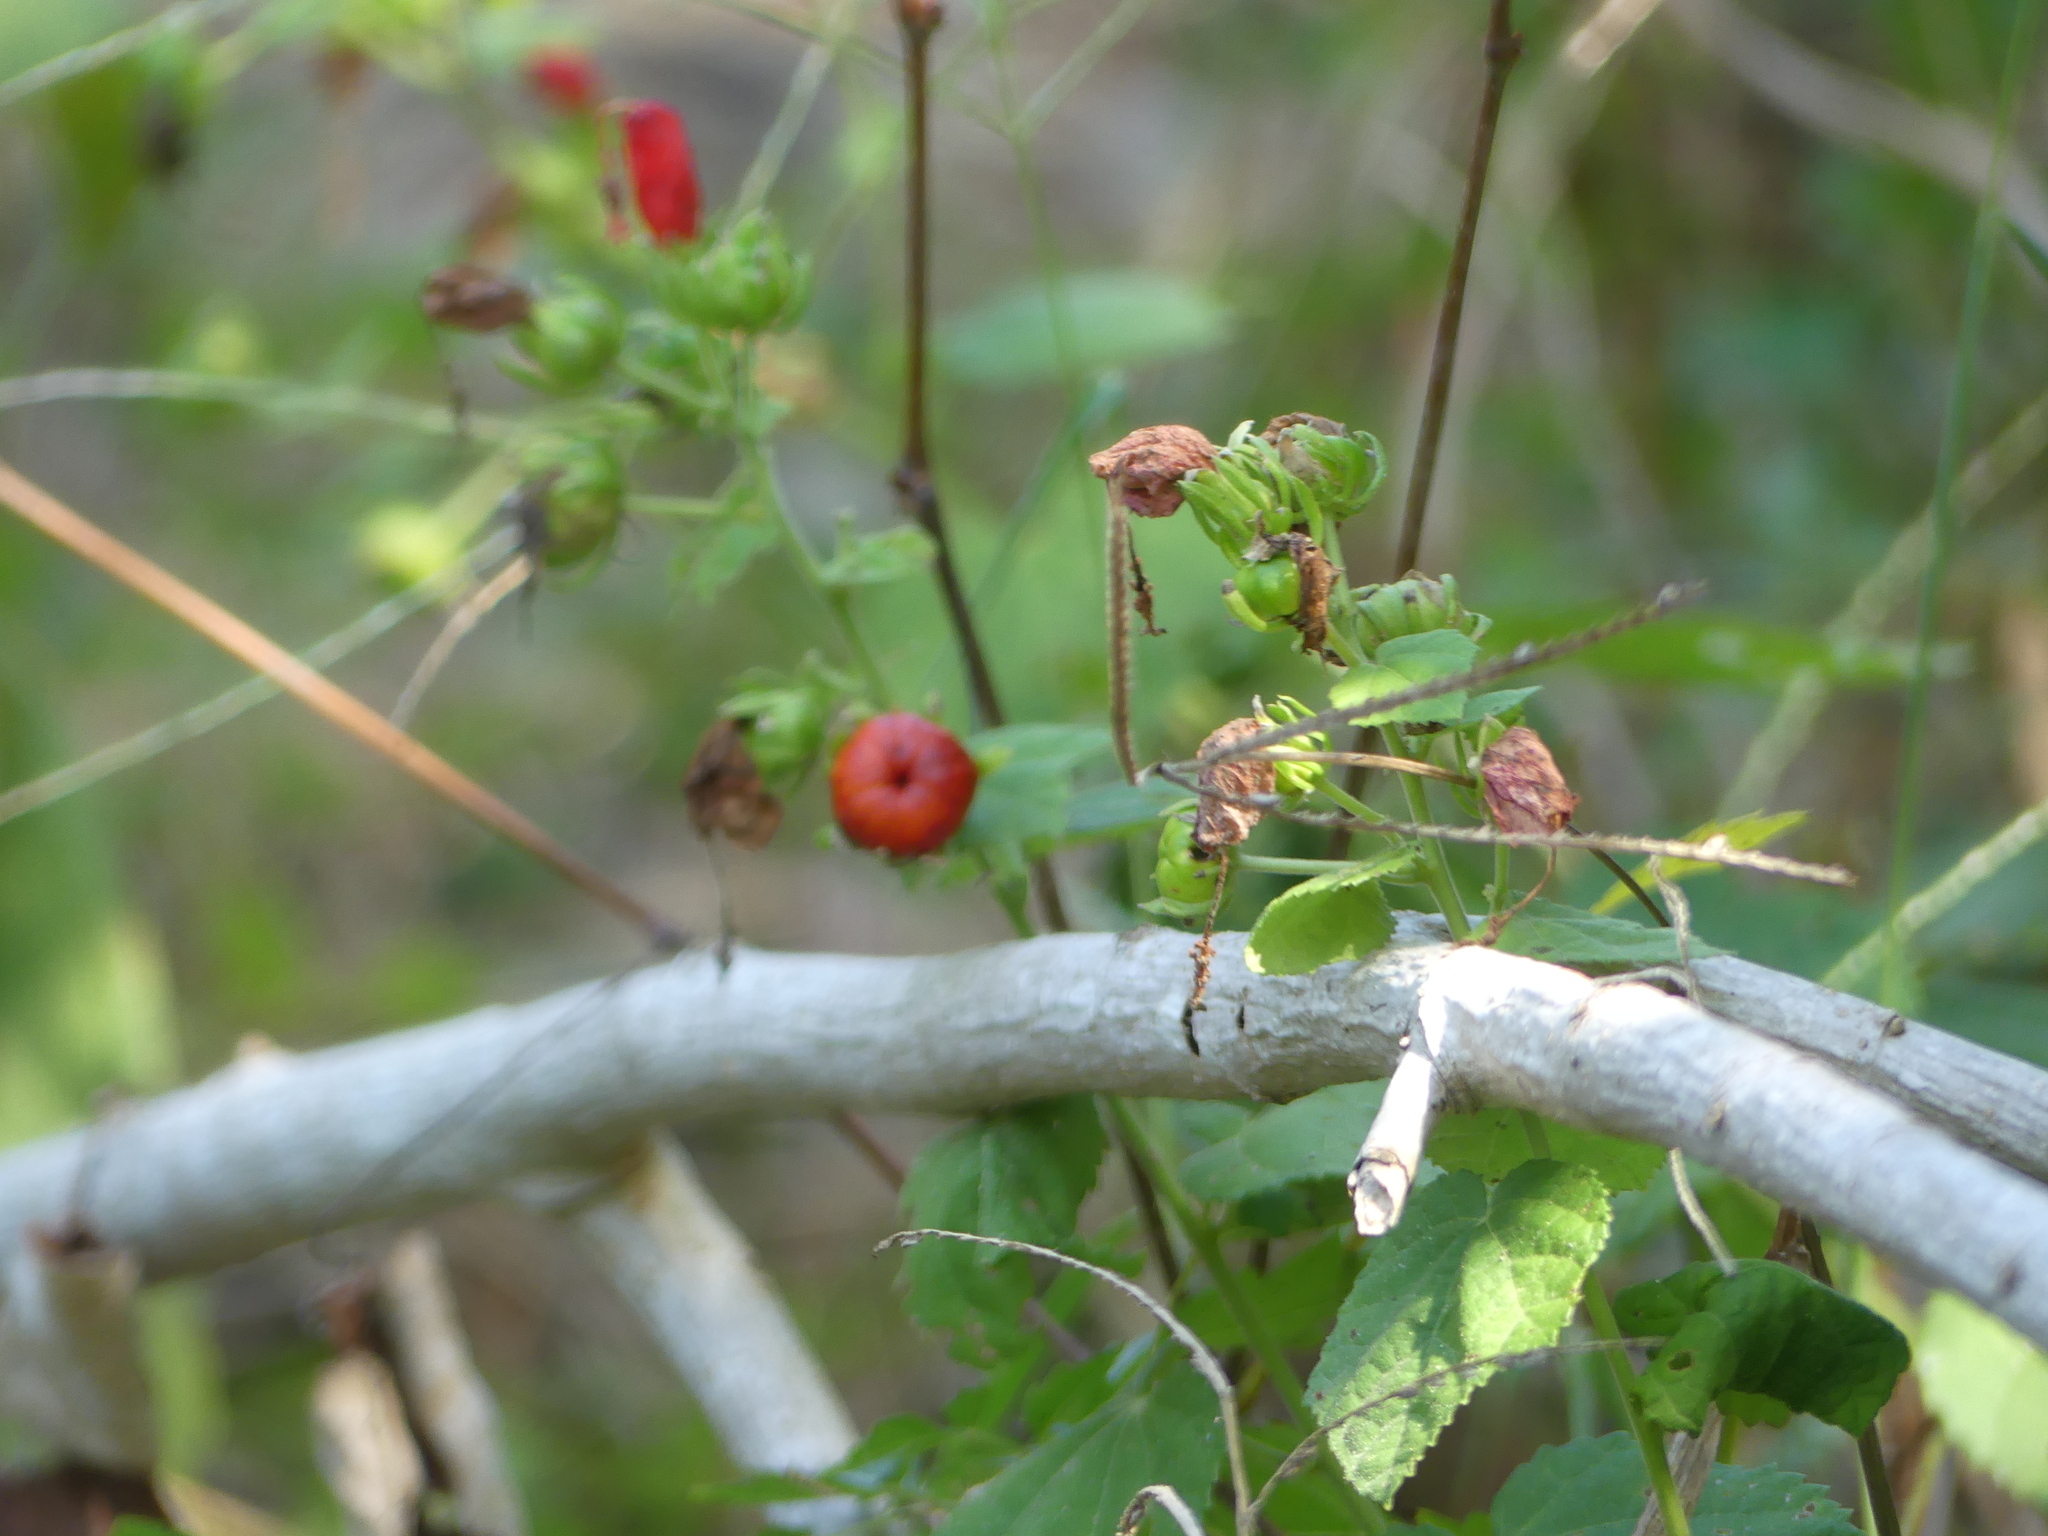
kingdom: Plantae
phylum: Tracheophyta
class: Magnoliopsida
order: Malvales
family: Malvaceae
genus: Malvaviscus
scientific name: Malvaviscus arboreus
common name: Wax mallow
